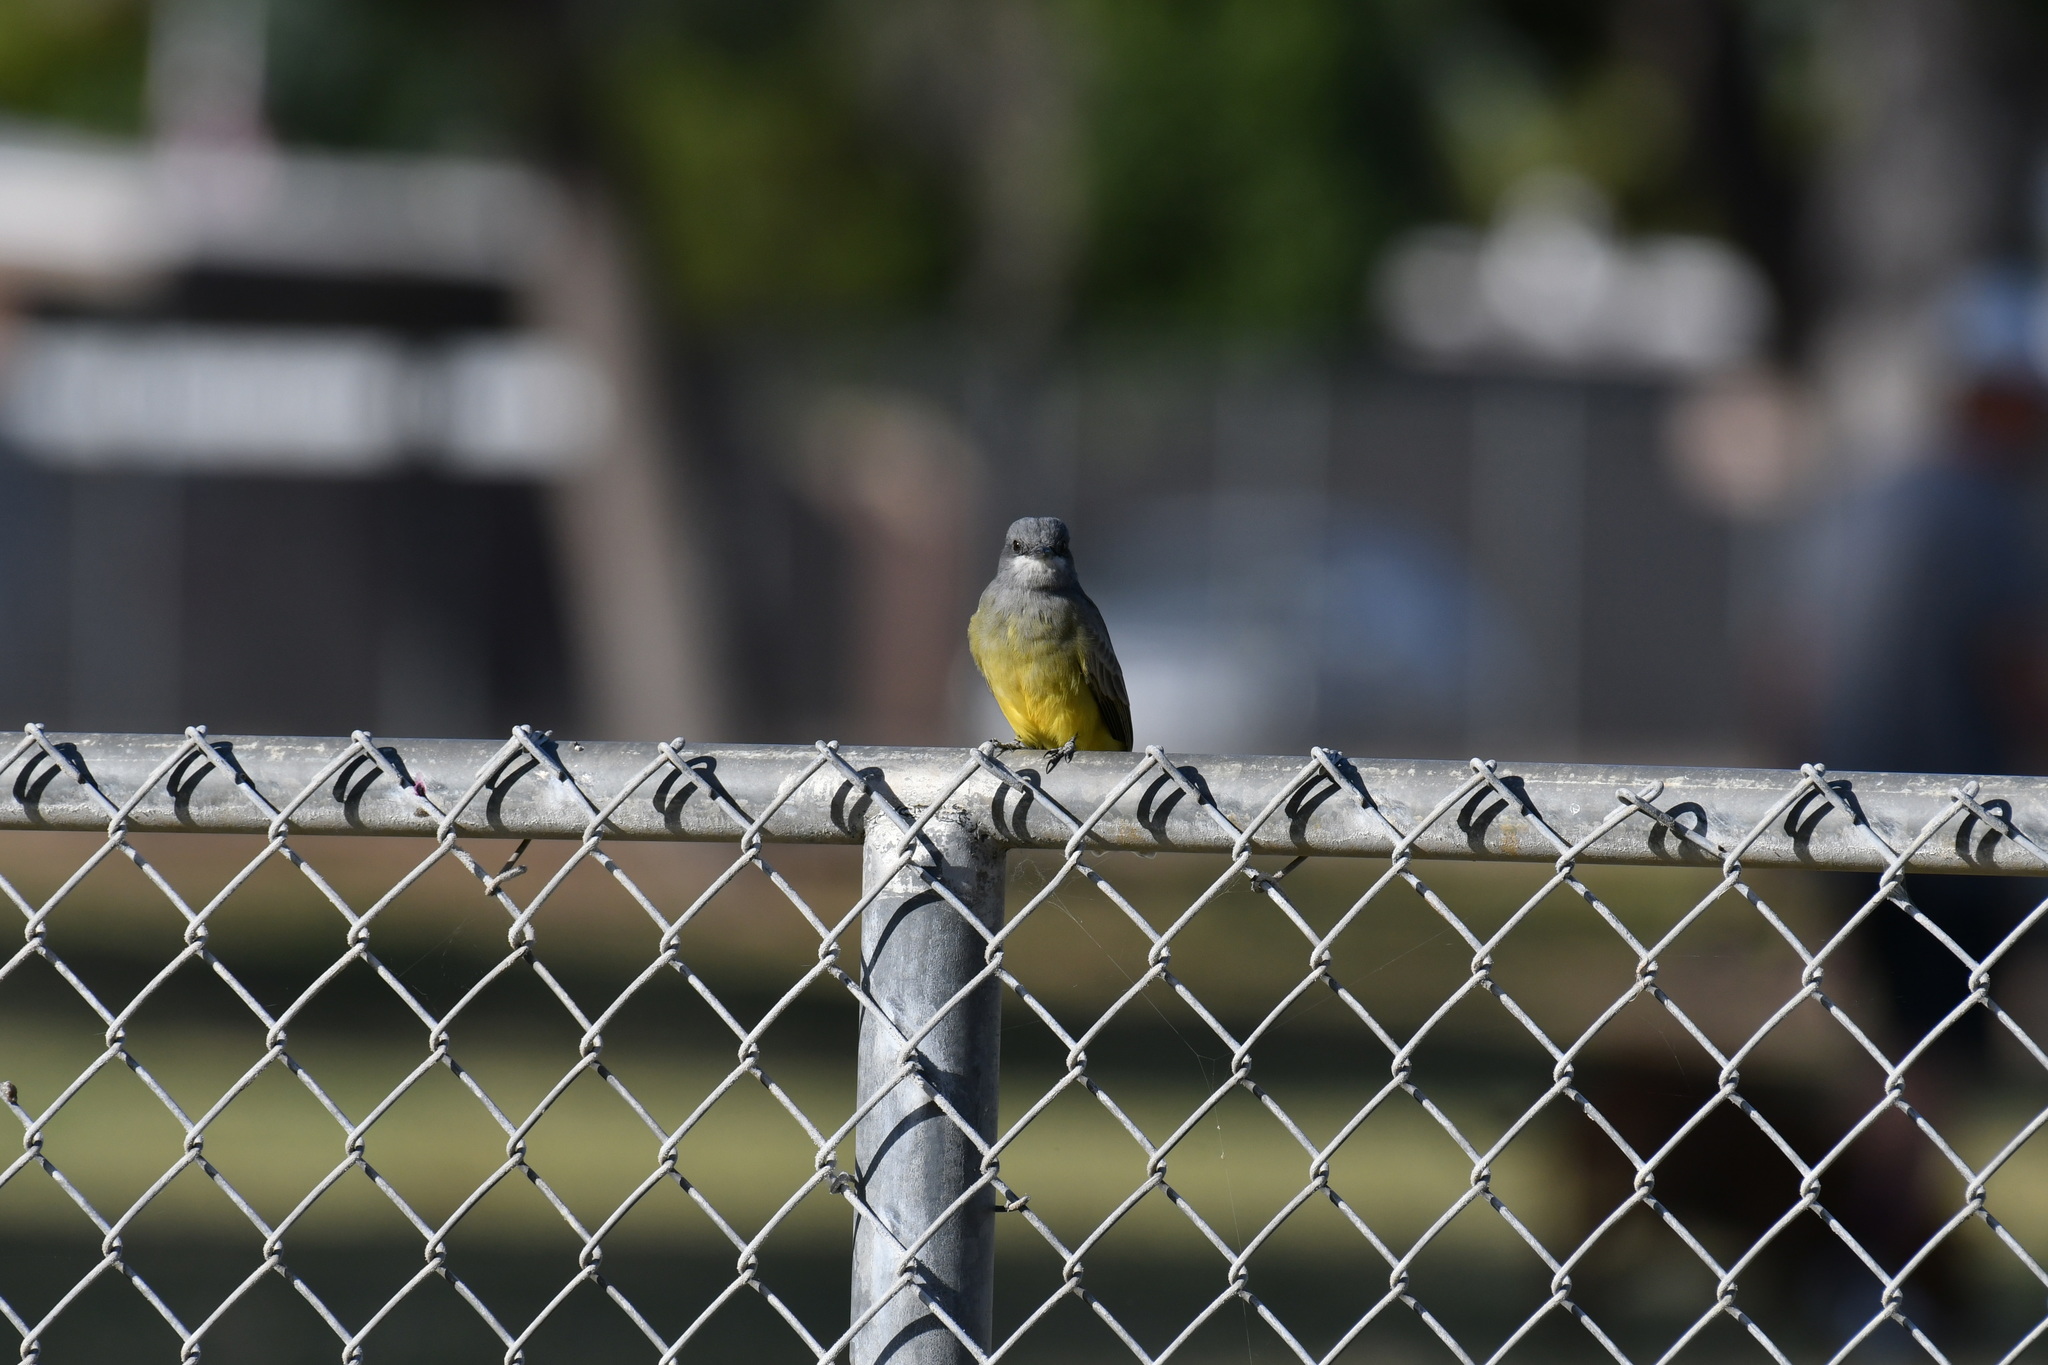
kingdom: Animalia
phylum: Chordata
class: Aves
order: Passeriformes
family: Tyrannidae
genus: Tyrannus
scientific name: Tyrannus vociferans
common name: Cassin's kingbird
